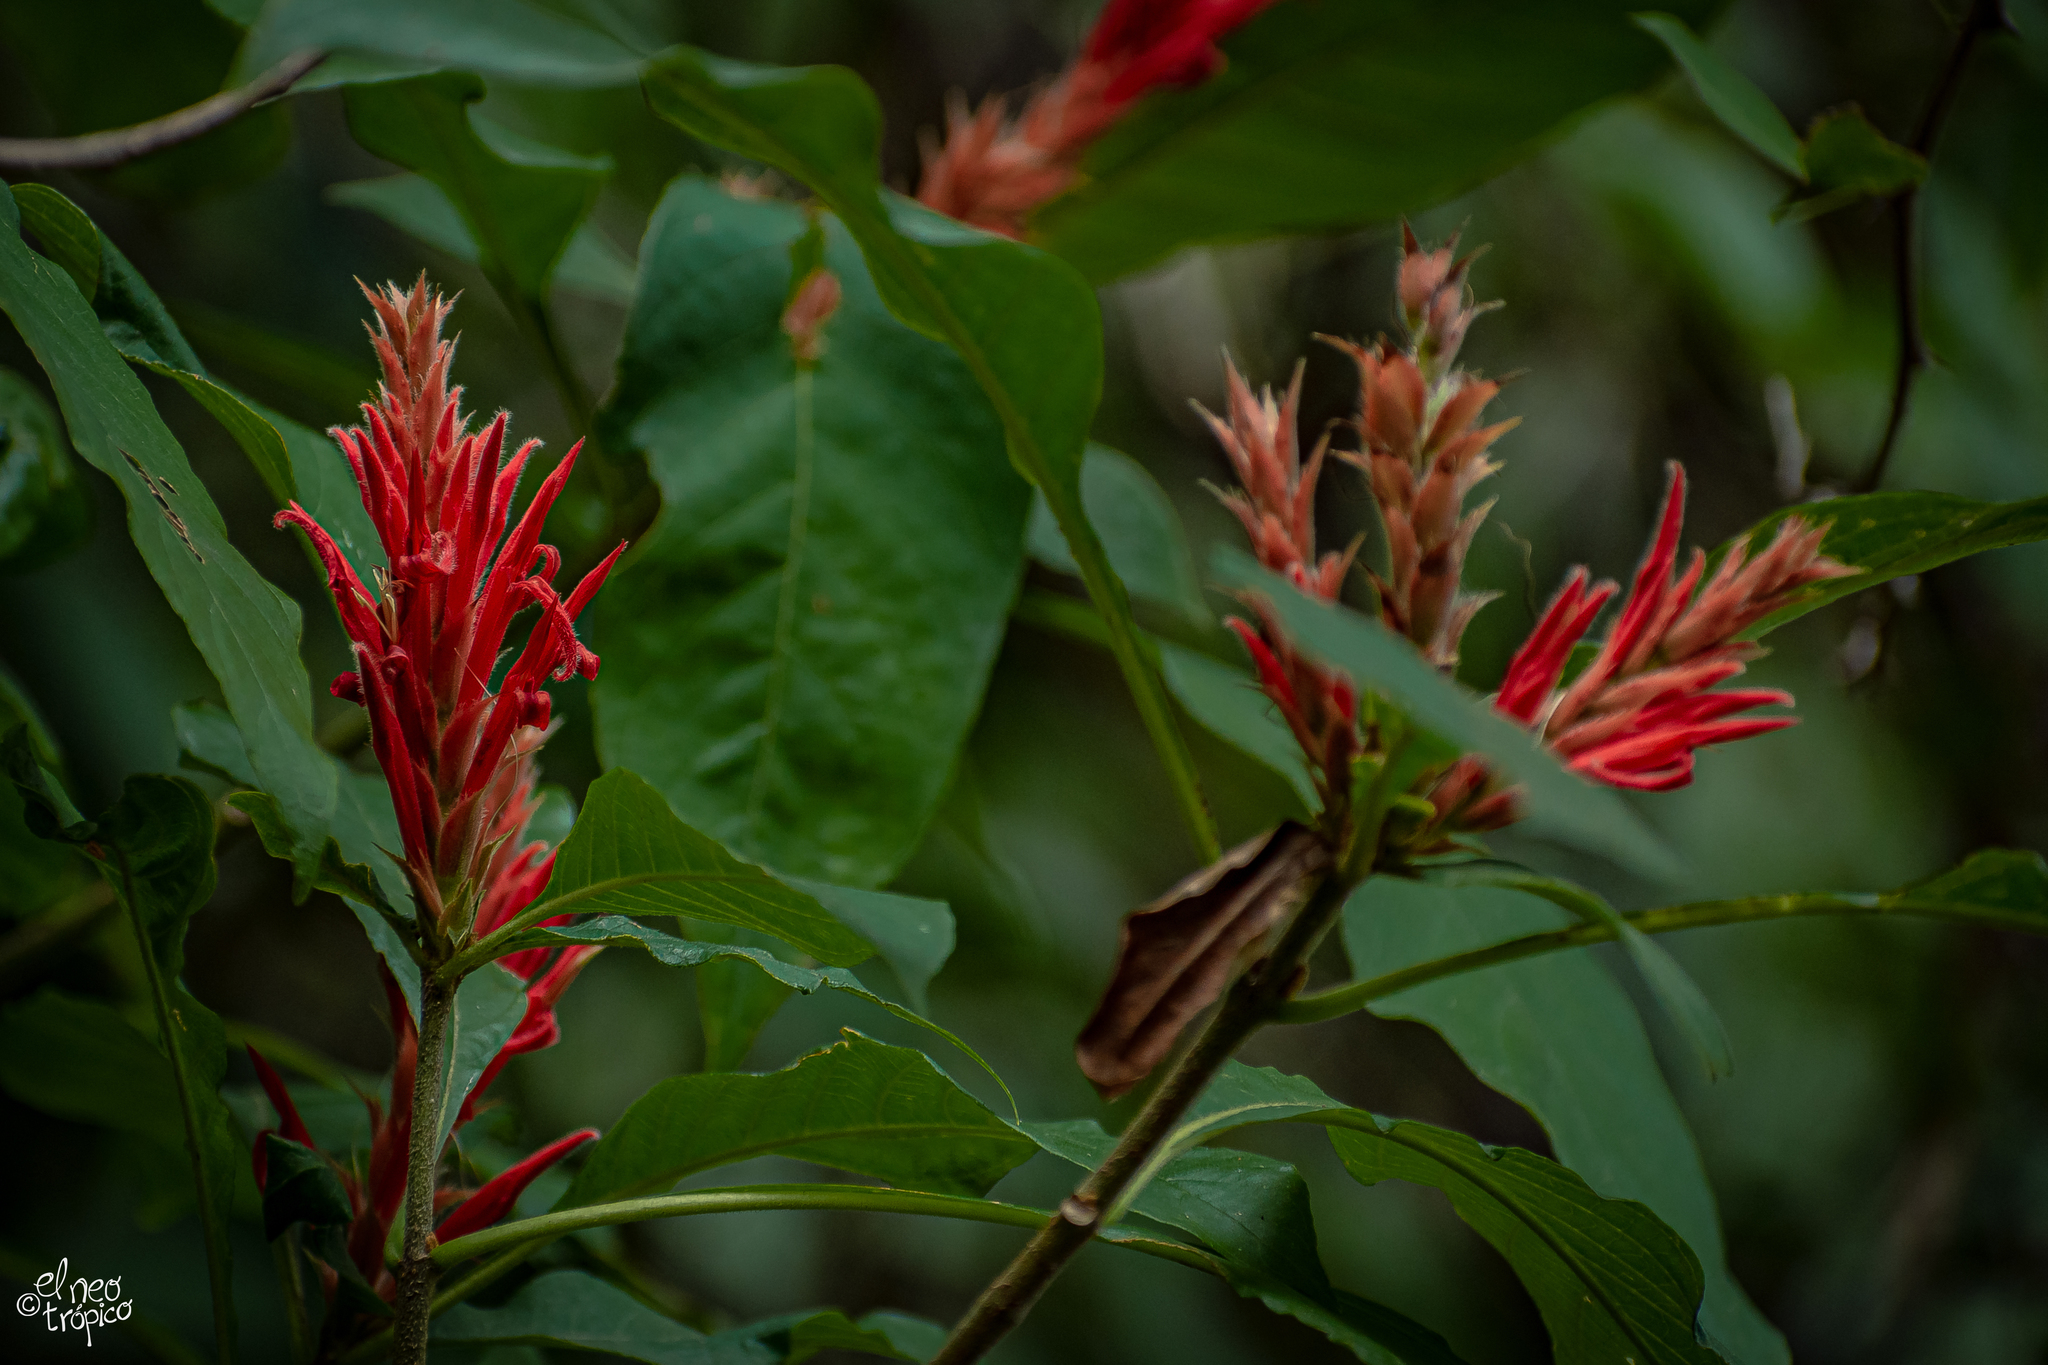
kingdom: Plantae
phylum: Tracheophyta
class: Magnoliopsida
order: Lamiales
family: Acanthaceae
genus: Aphelandra
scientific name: Aphelandra scabra
